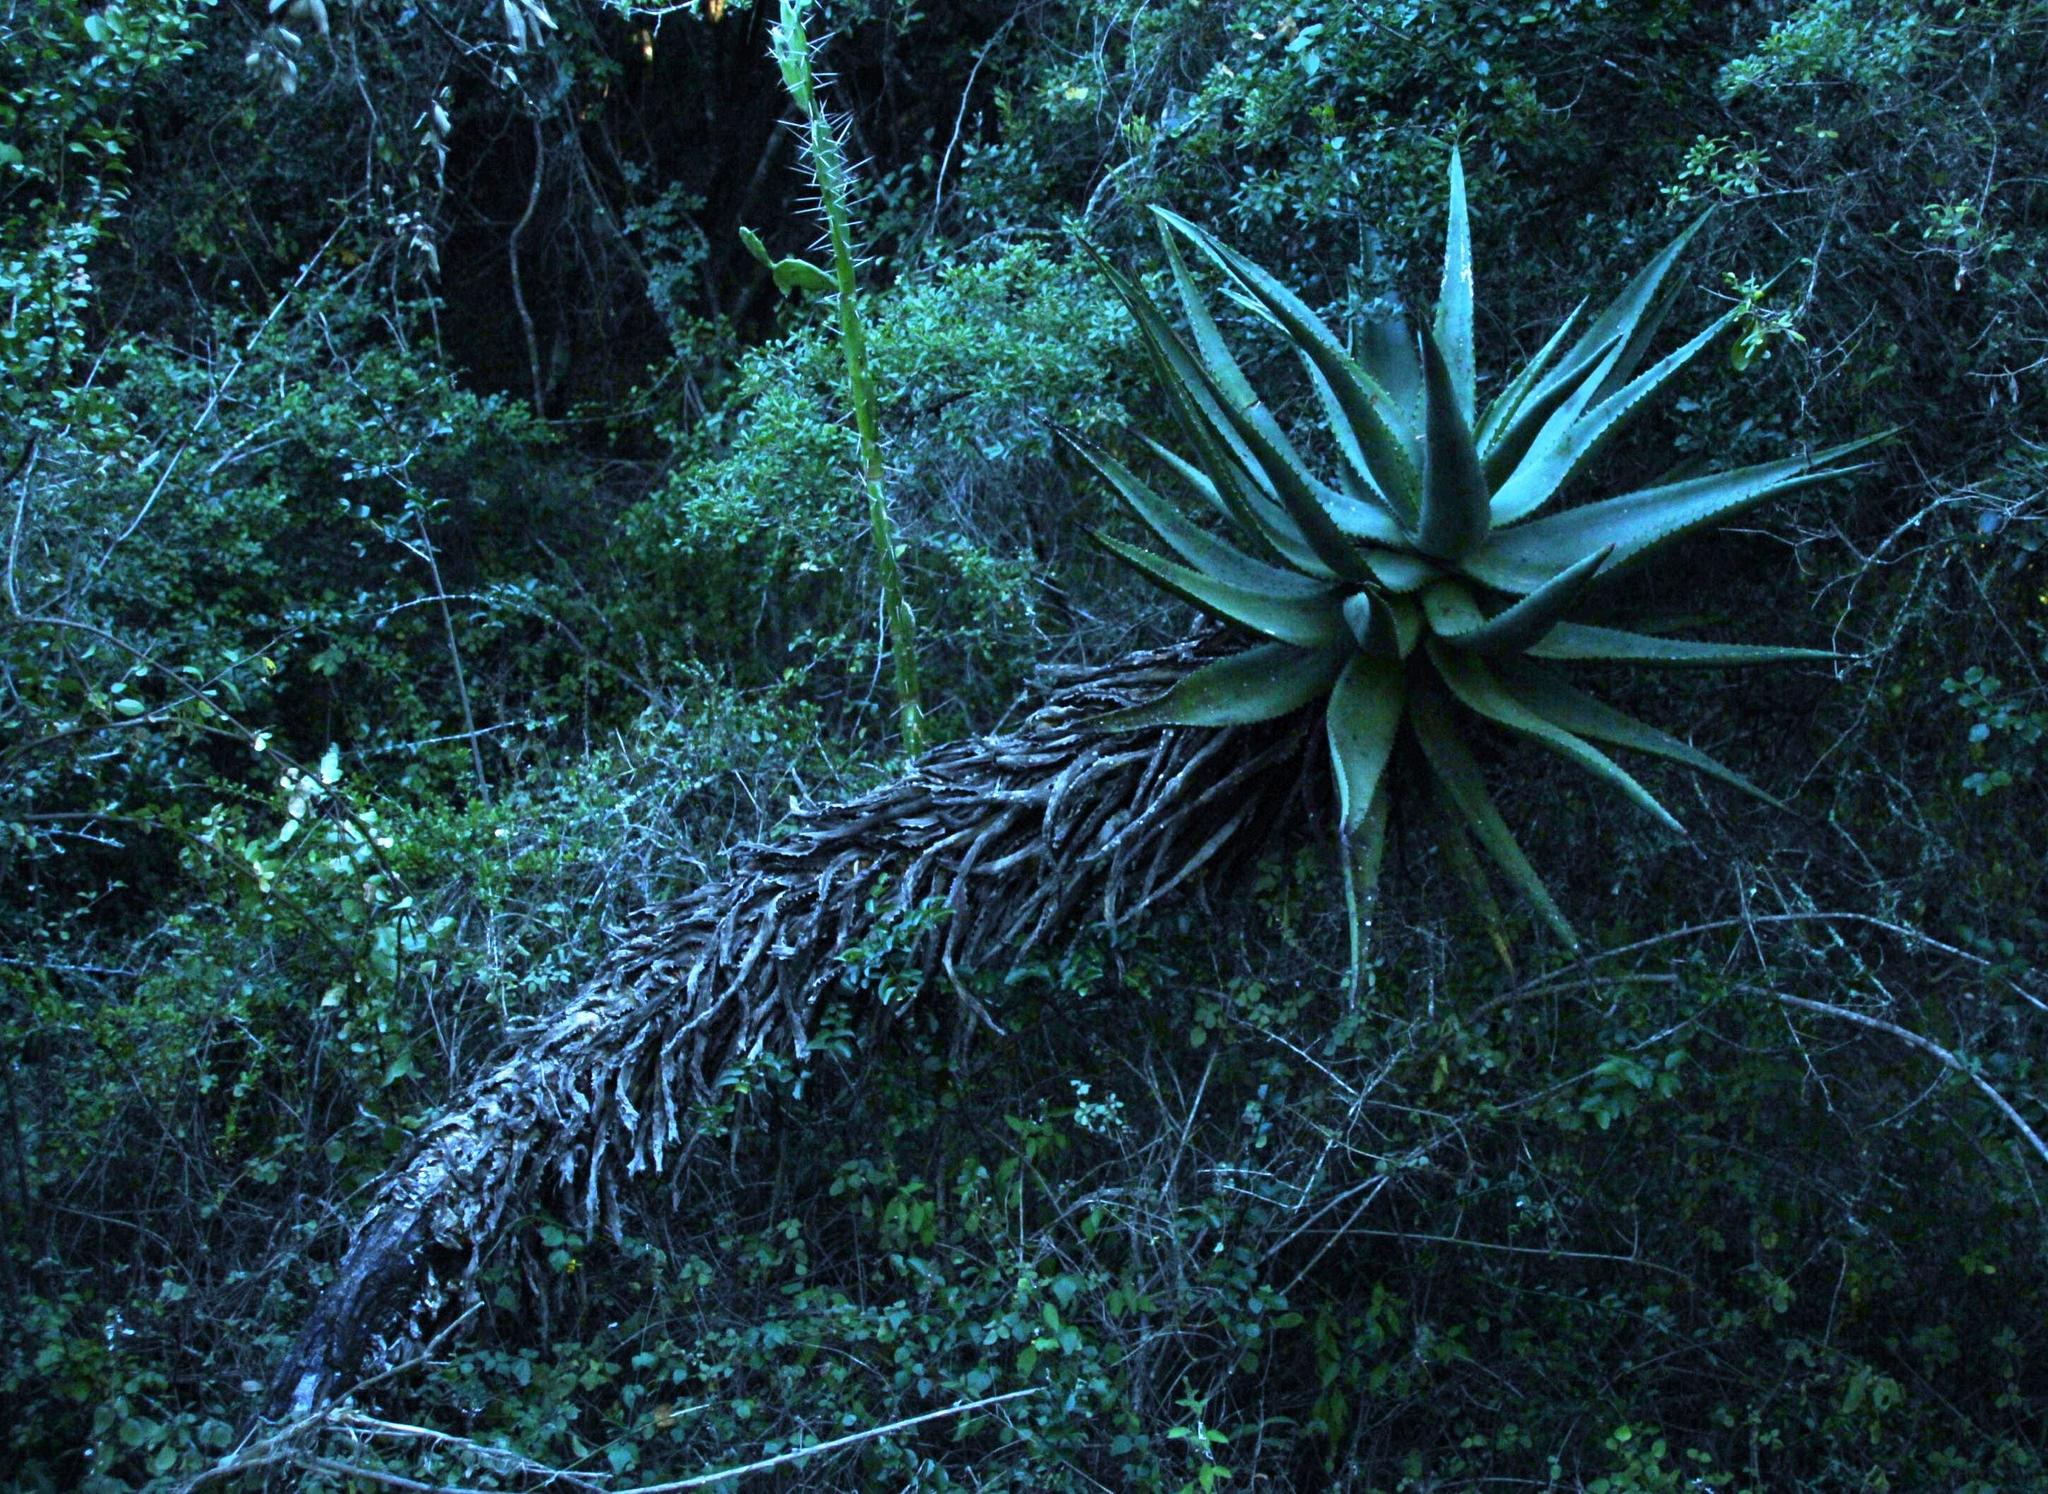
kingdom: Plantae
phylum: Tracheophyta
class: Liliopsida
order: Asparagales
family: Asphodelaceae
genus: Aloe
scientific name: Aloe ferox
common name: Bitter aloe
